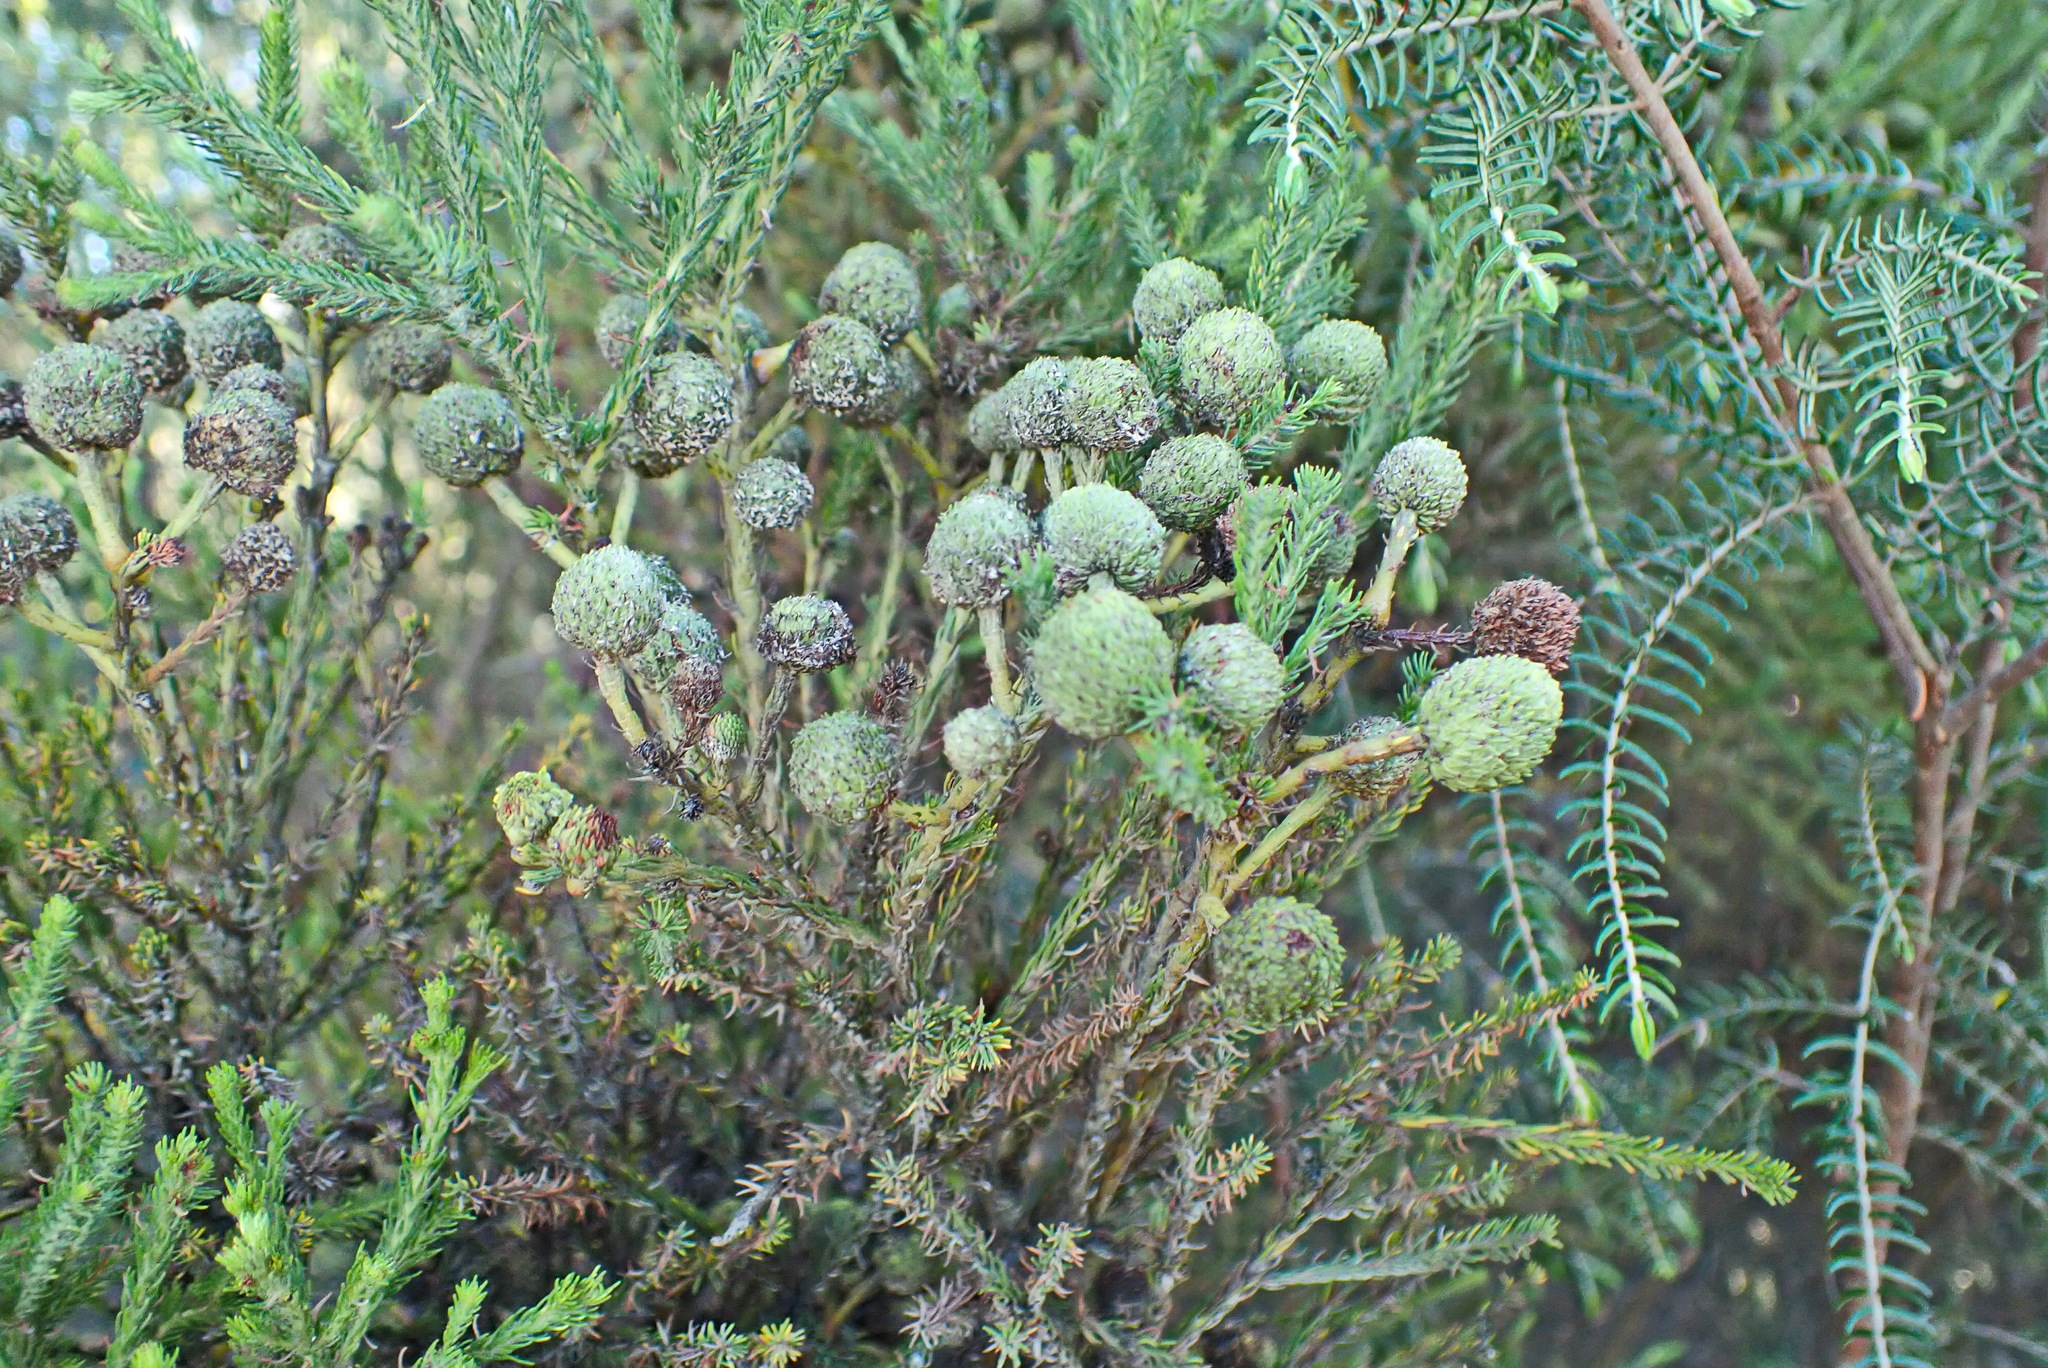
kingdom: Plantae
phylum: Tracheophyta
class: Magnoliopsida
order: Bruniales
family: Bruniaceae
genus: Berzelia
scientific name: Berzelia intermedia
